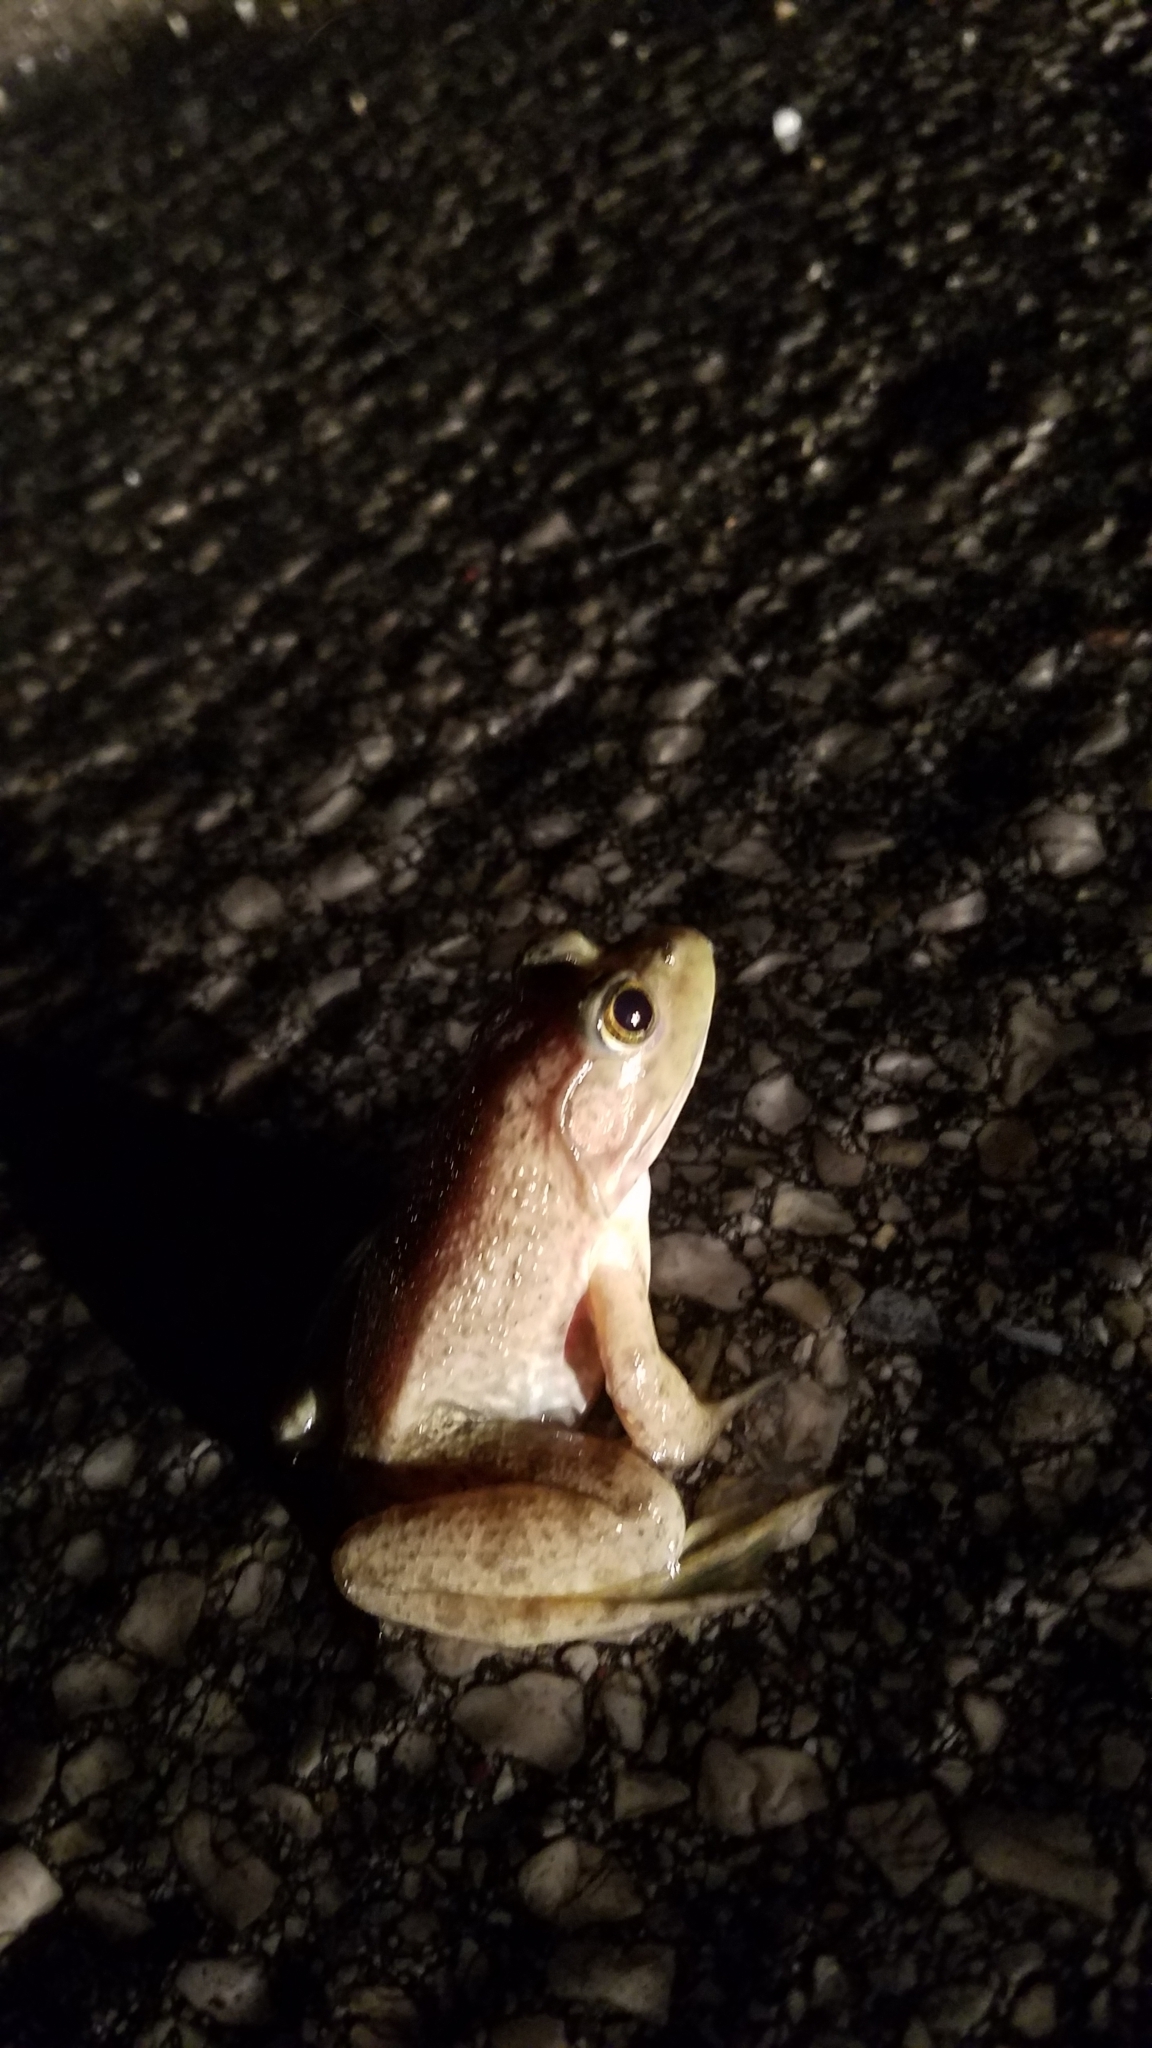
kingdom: Animalia
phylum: Chordata
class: Amphibia
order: Anura
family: Ranidae
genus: Lithobates
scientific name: Lithobates catesbeianus
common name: American bullfrog
